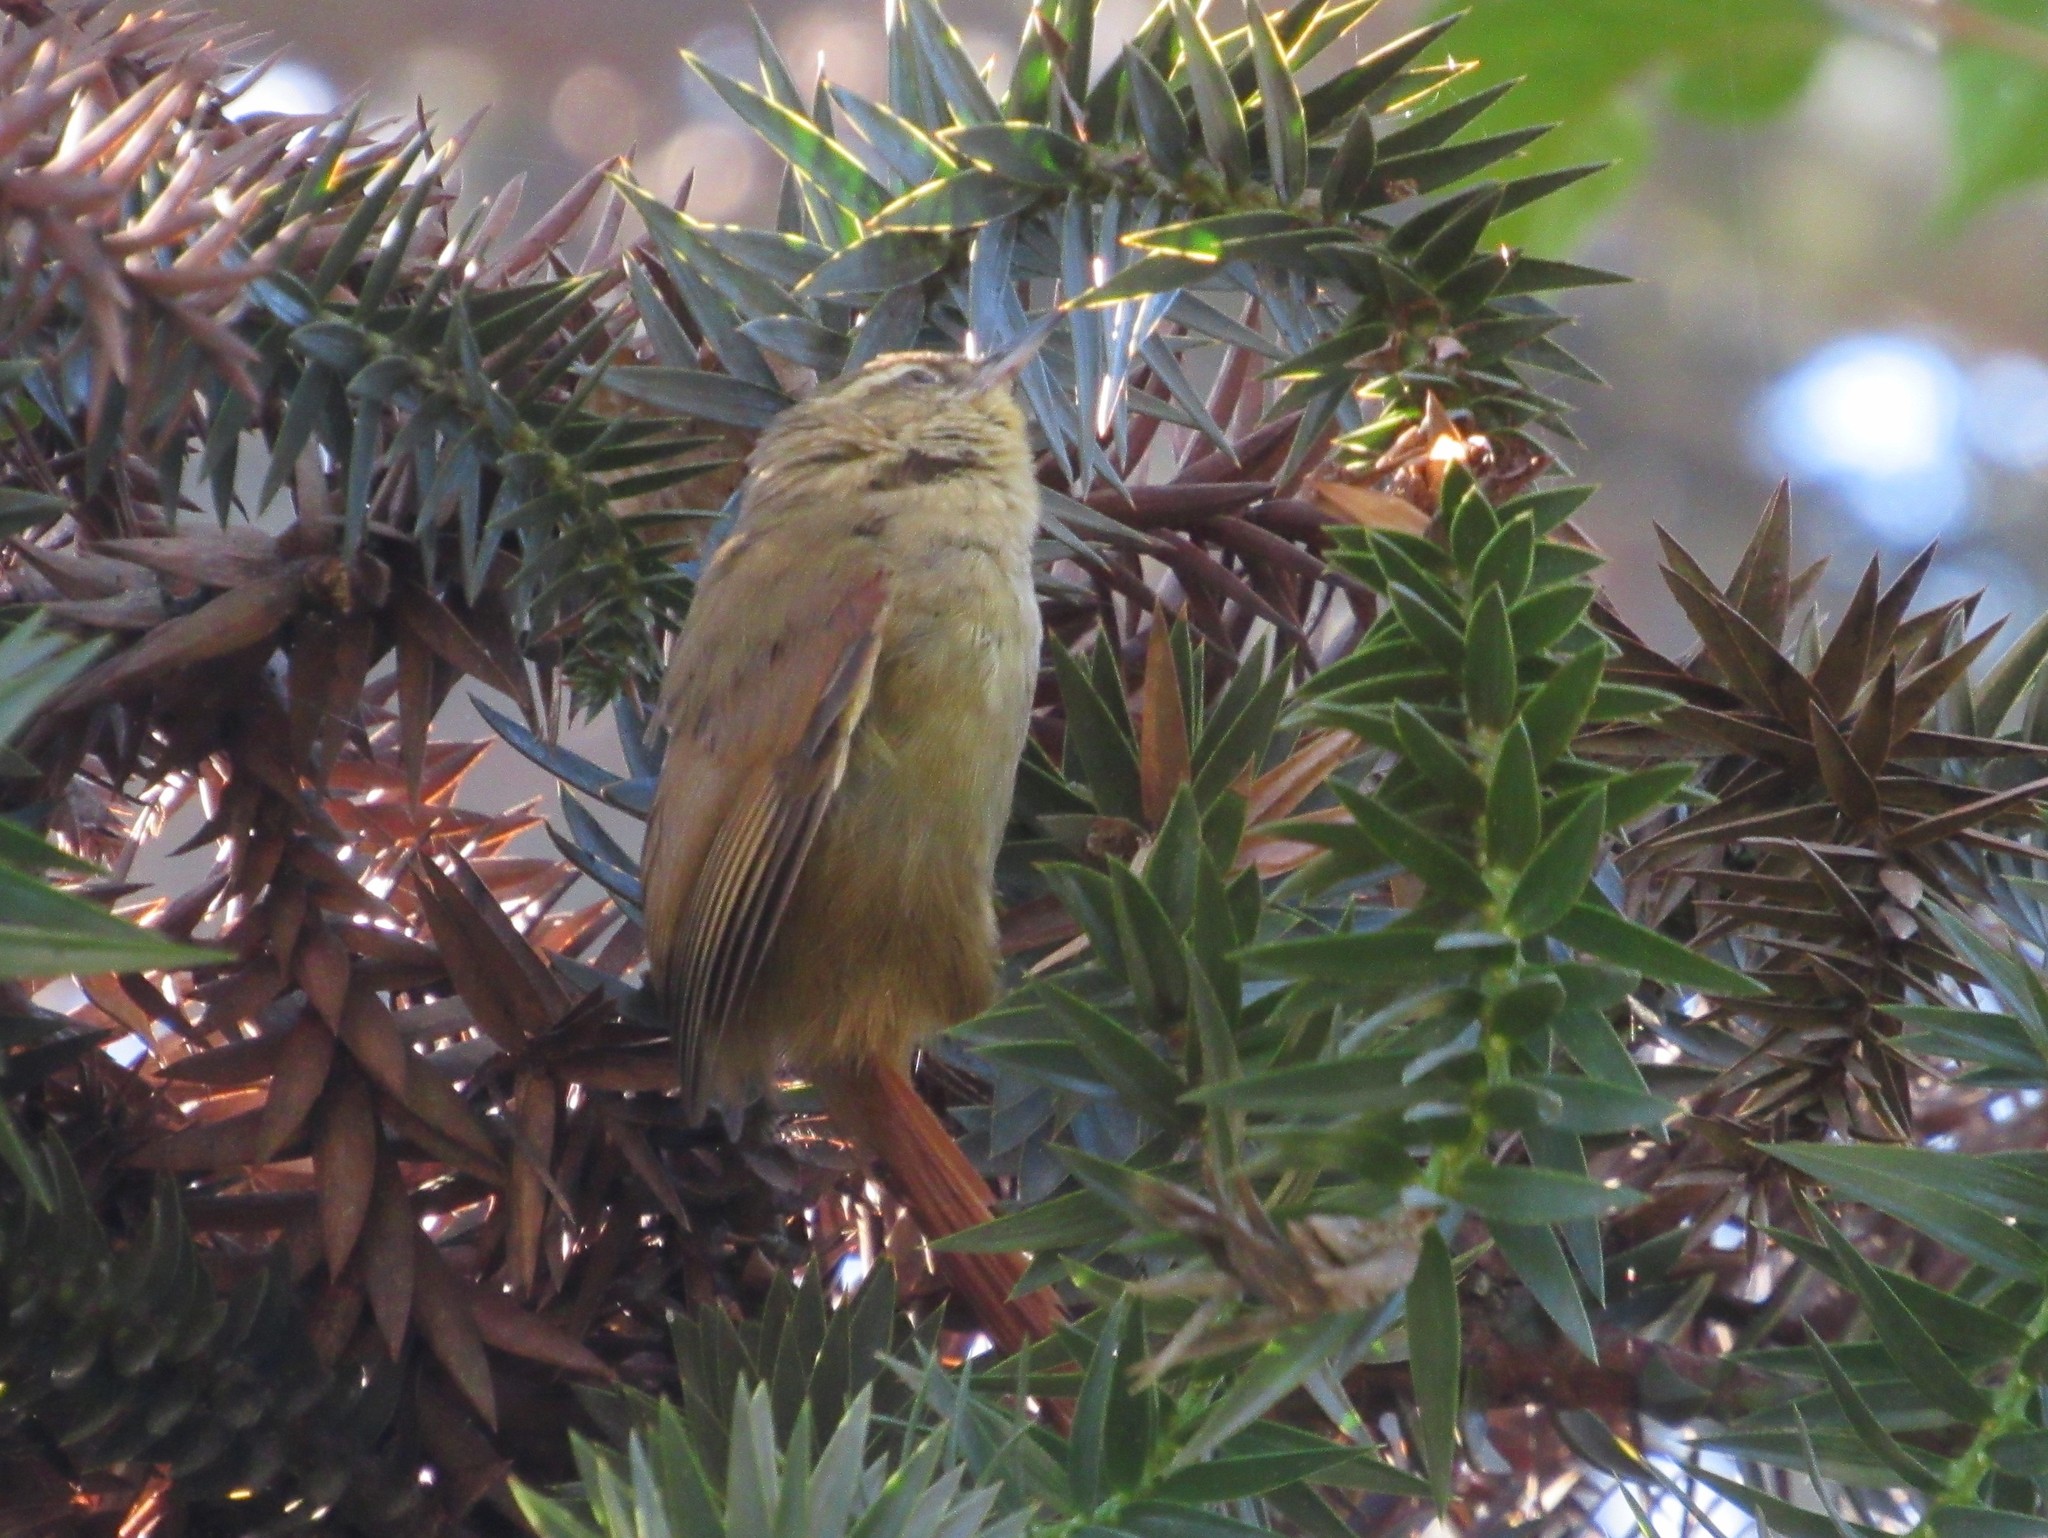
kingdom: Animalia
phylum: Chordata
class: Aves
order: Passeriformes
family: Furnariidae
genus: Cranioleuca
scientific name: Cranioleuca obsoleta
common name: Olive spinetail
